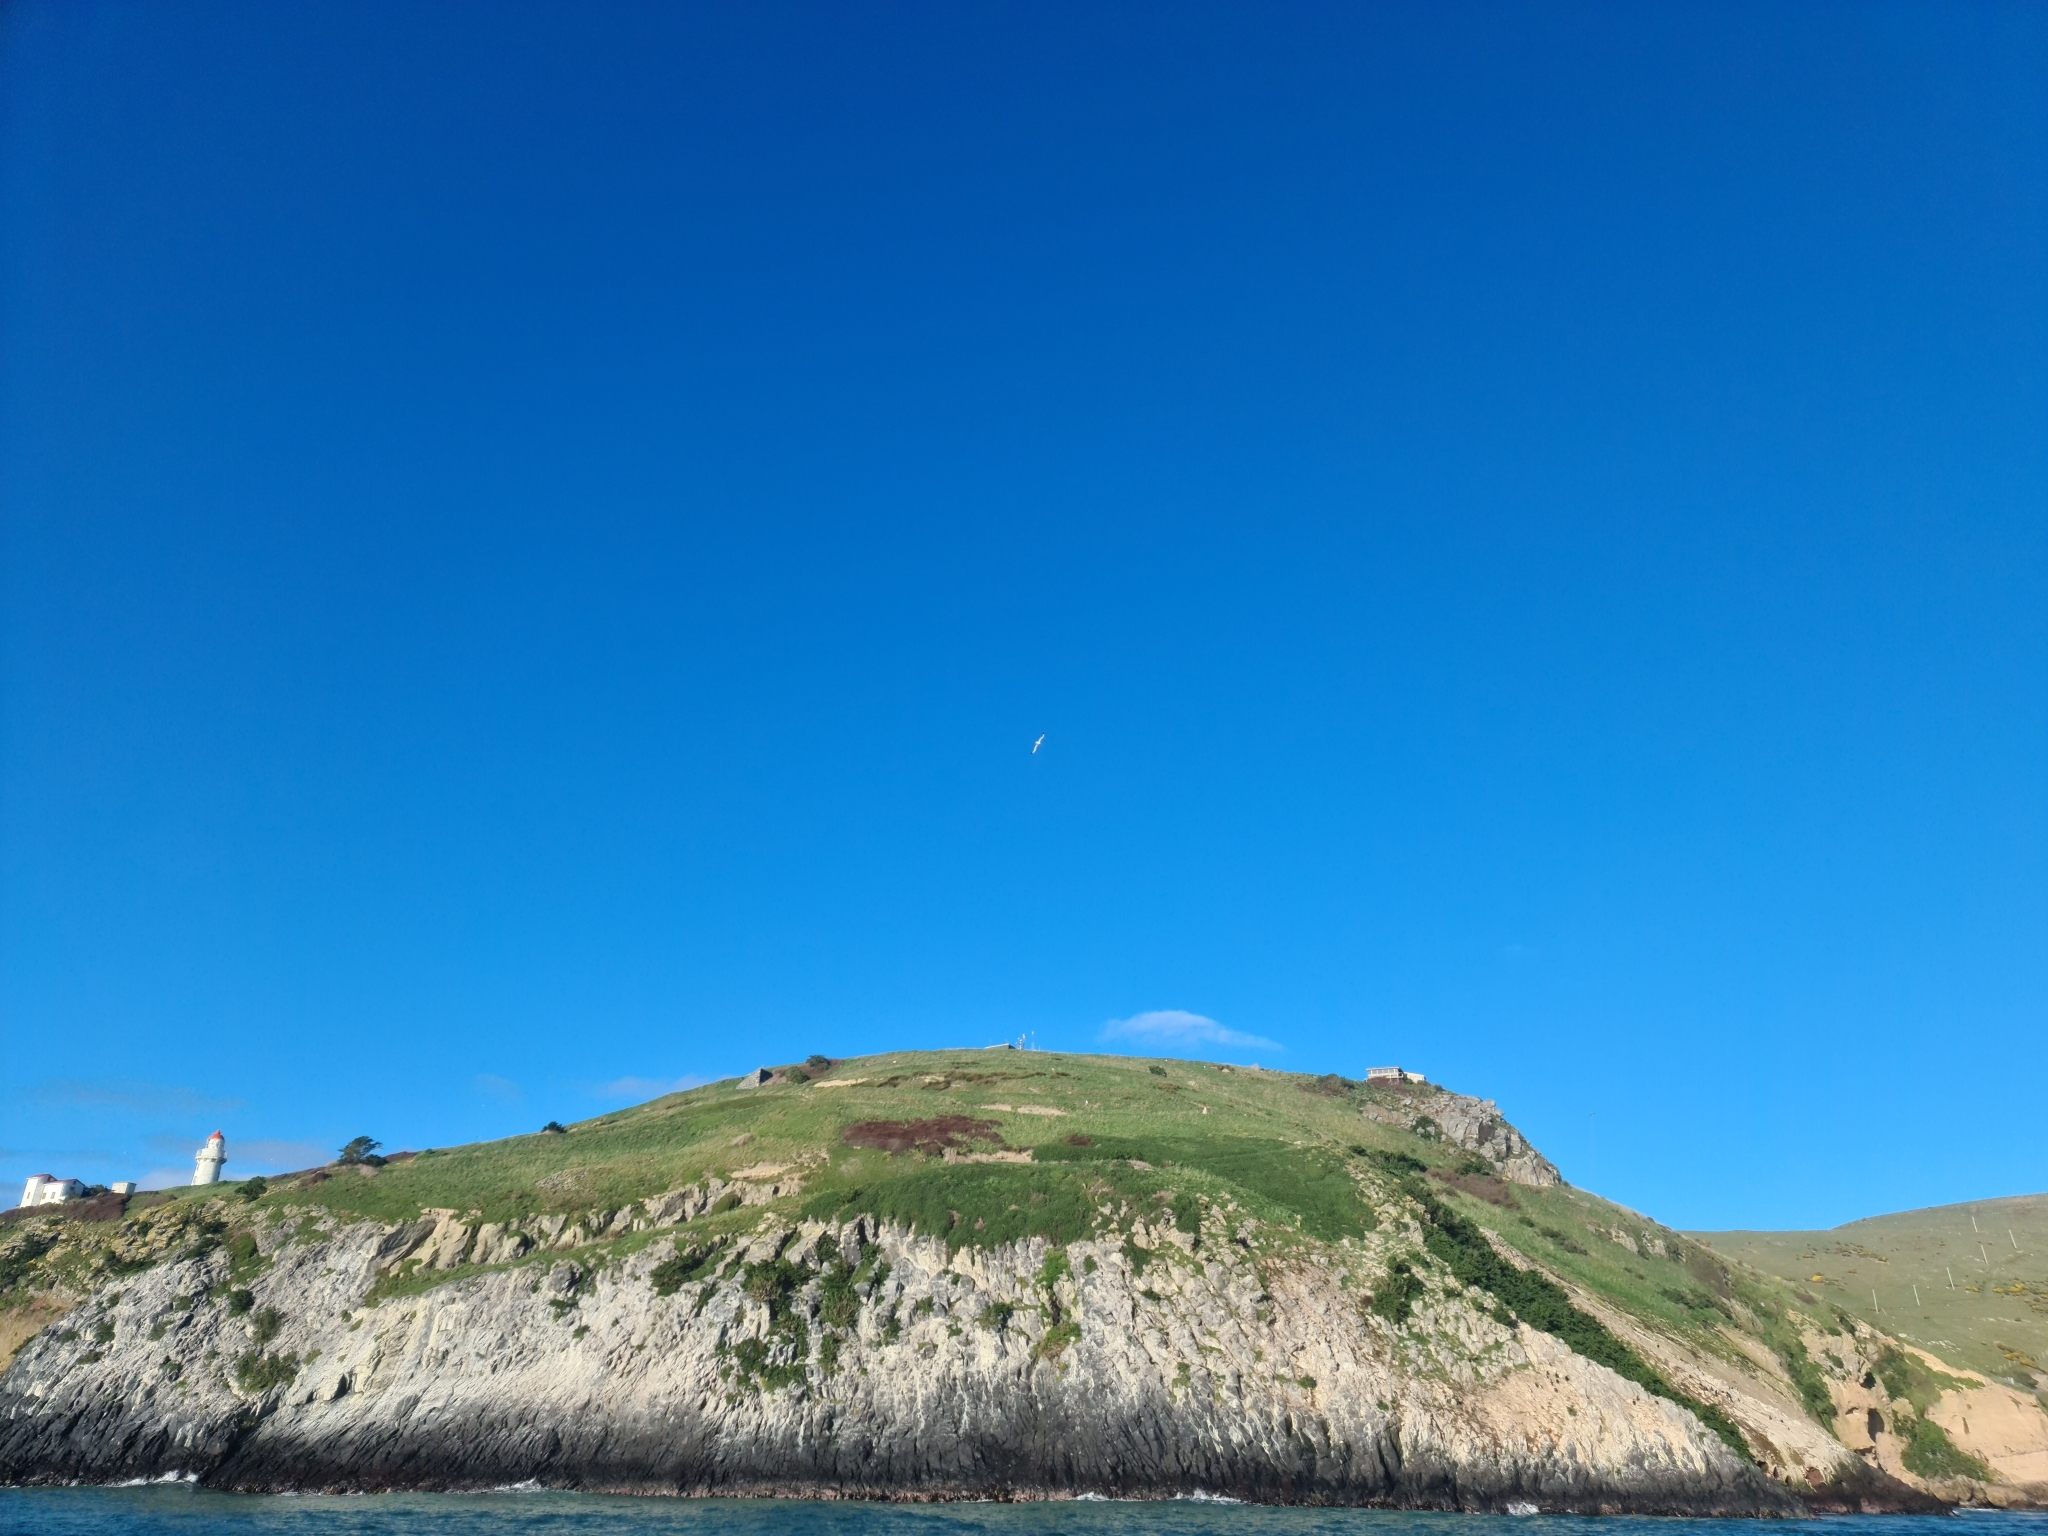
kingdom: Animalia
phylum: Chordata
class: Aves
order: Procellariiformes
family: Diomedeidae
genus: Diomedea
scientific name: Diomedea sanfordi
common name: Northern royal albatross
